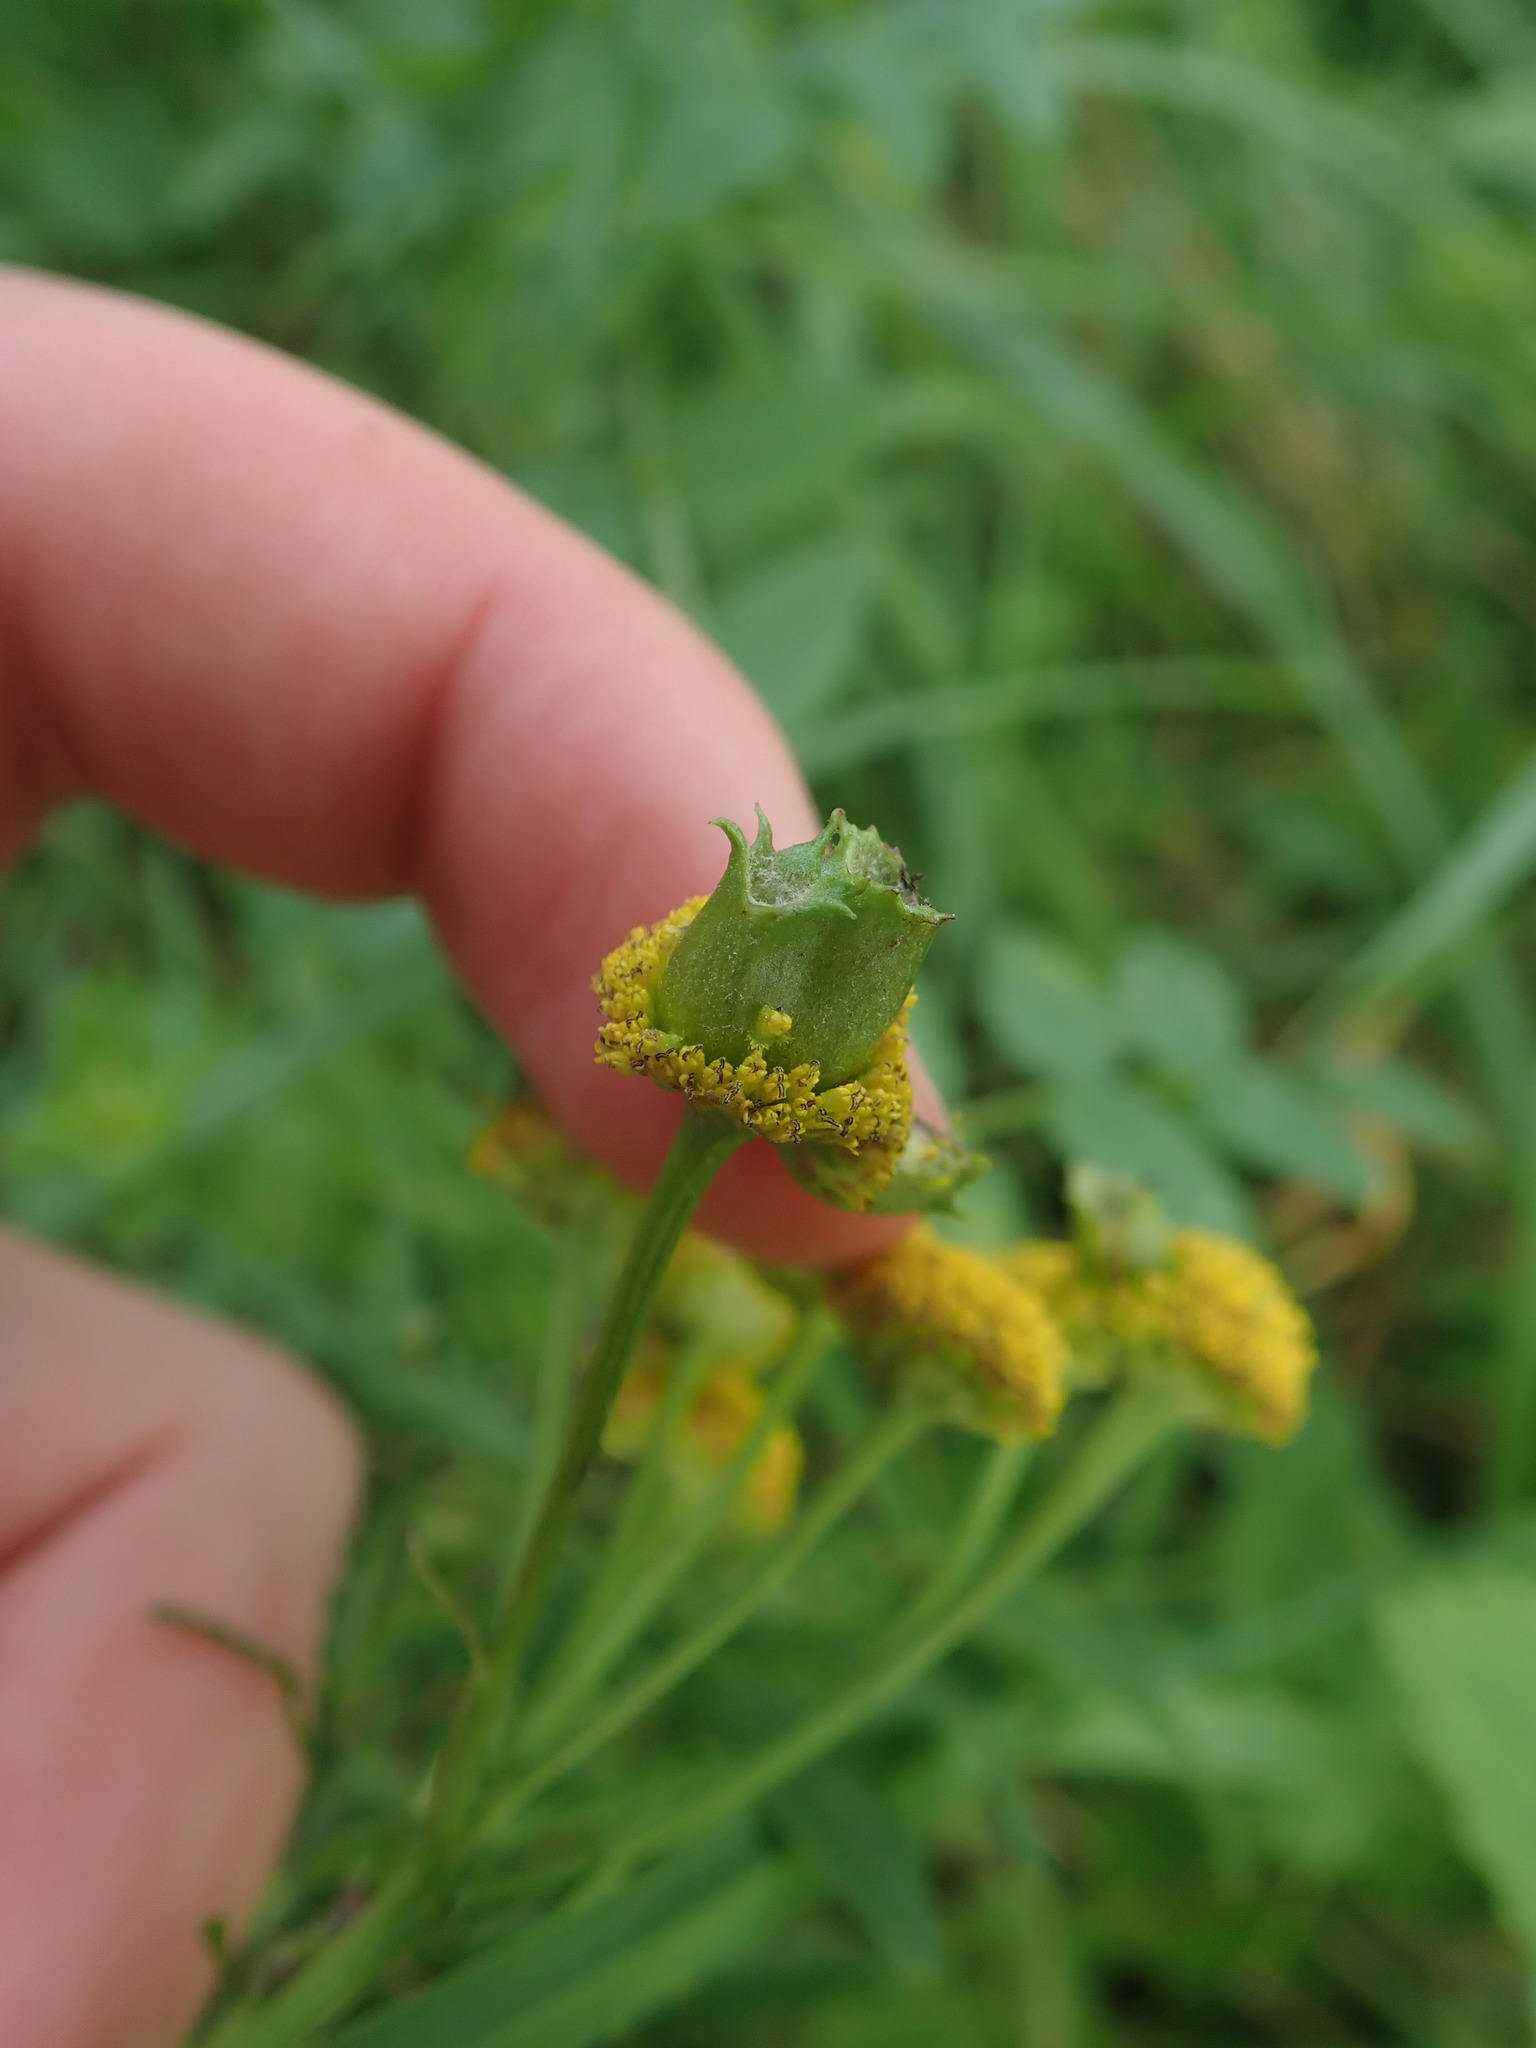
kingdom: Animalia
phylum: Arthropoda
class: Insecta
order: Diptera
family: Cecidomyiidae
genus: Rhopalomyia
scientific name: Rhopalomyia tanaceticolus
